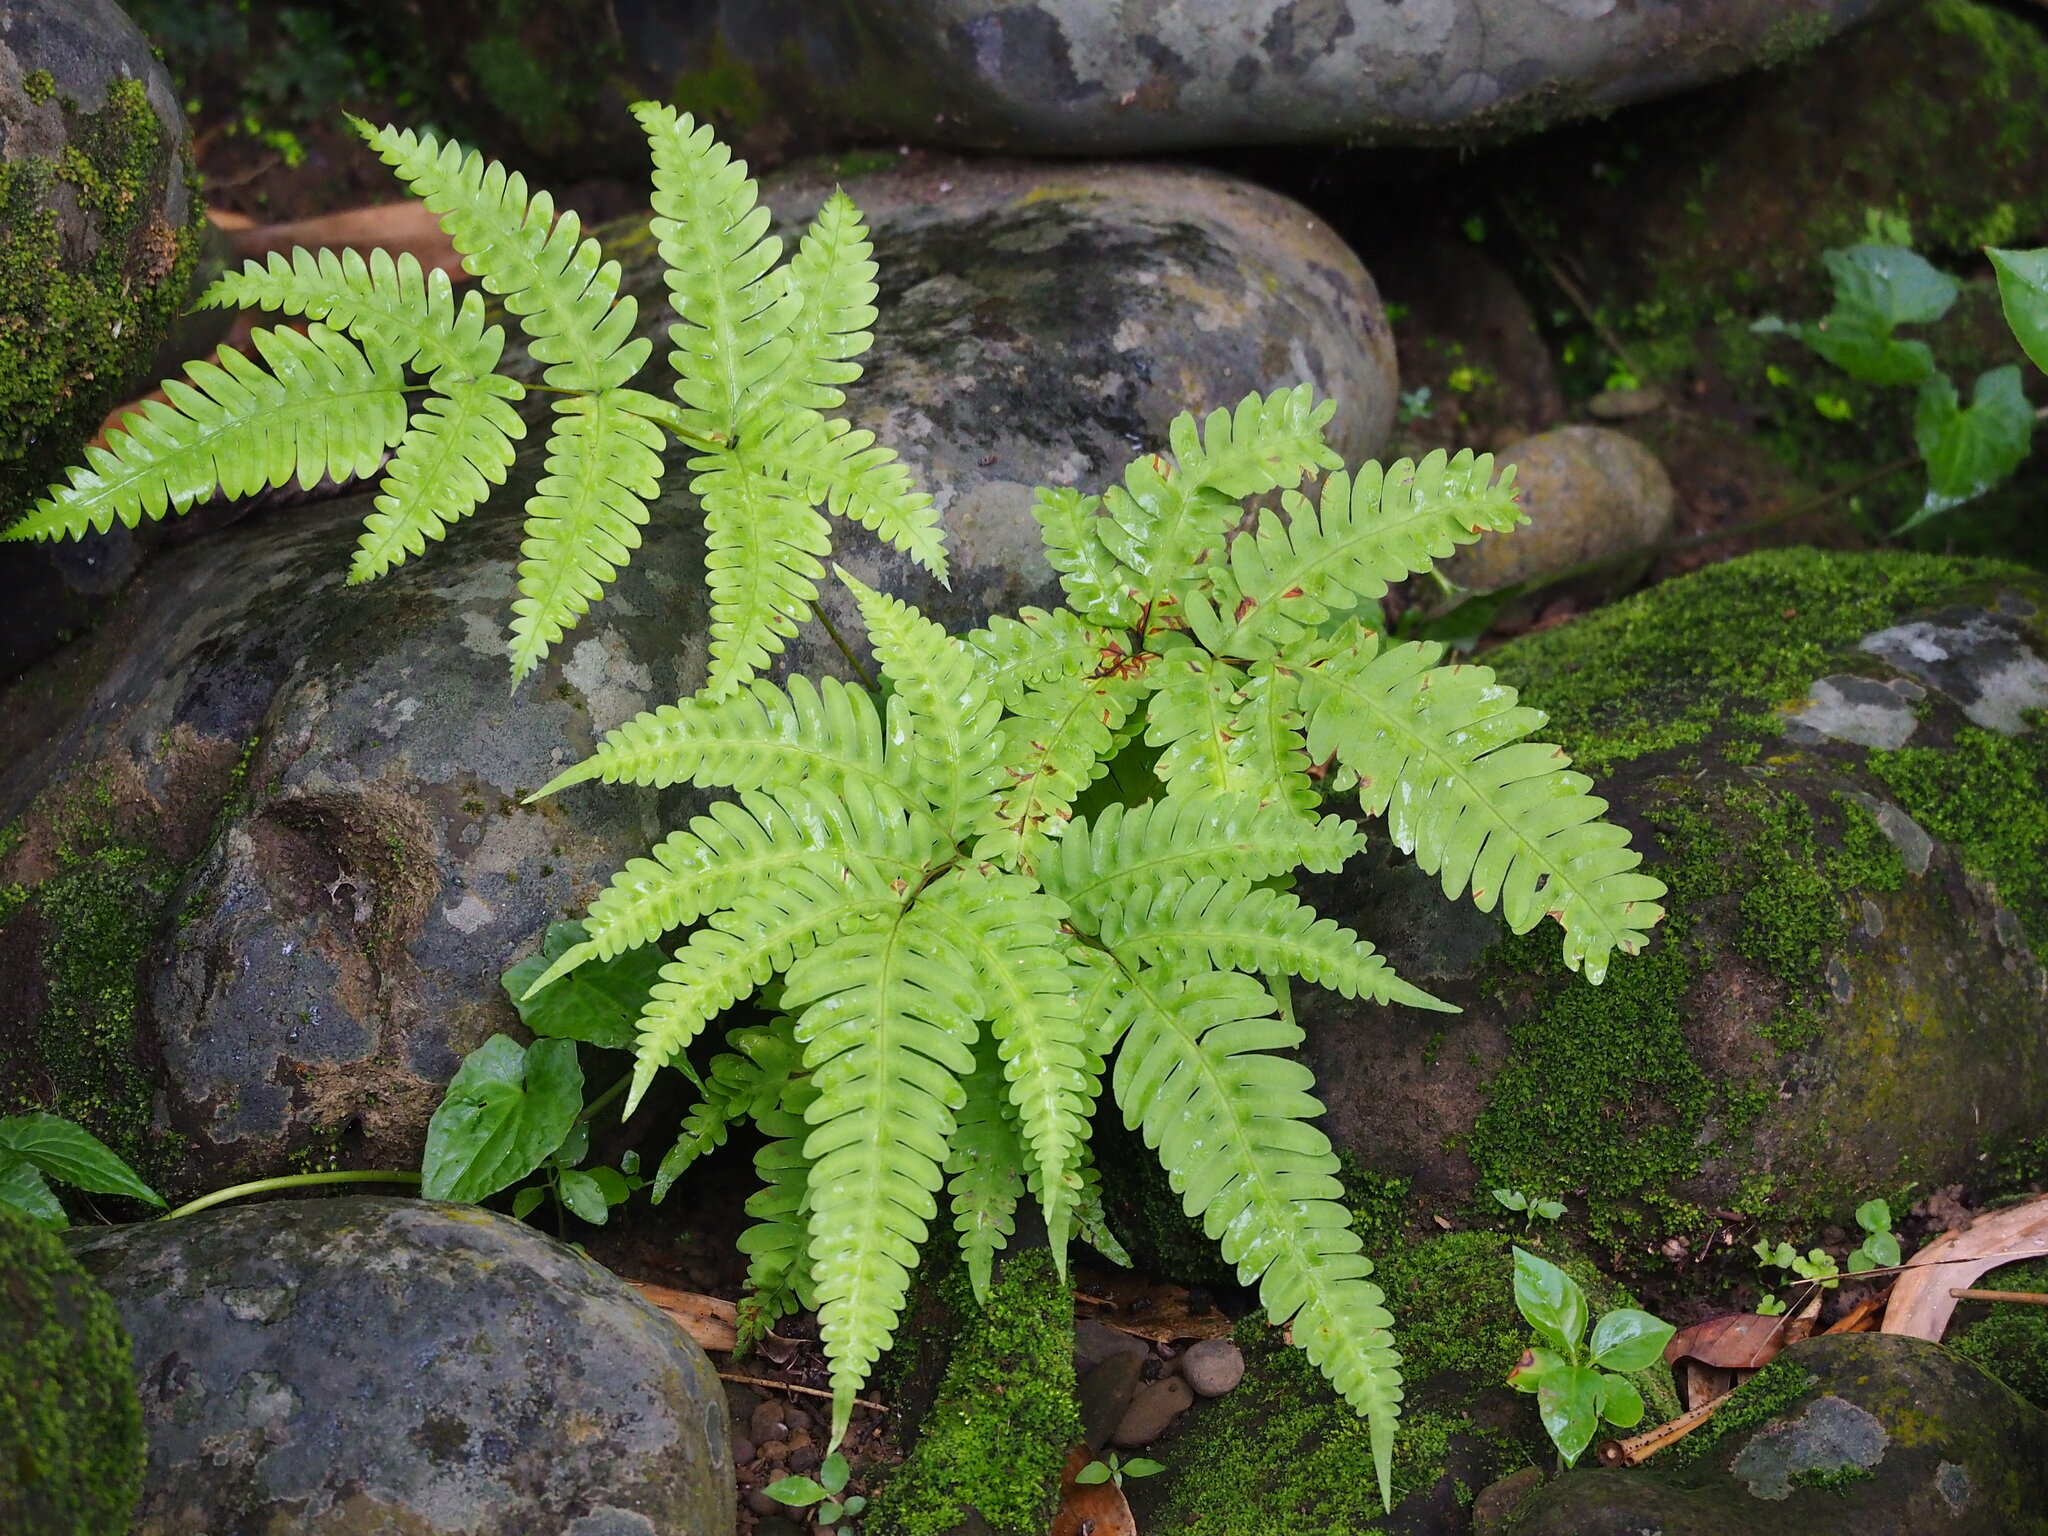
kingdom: Plantae
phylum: Tracheophyta
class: Polypodiopsida
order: Polypodiales
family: Pteridaceae
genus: Pteris
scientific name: Pteris biaurita
